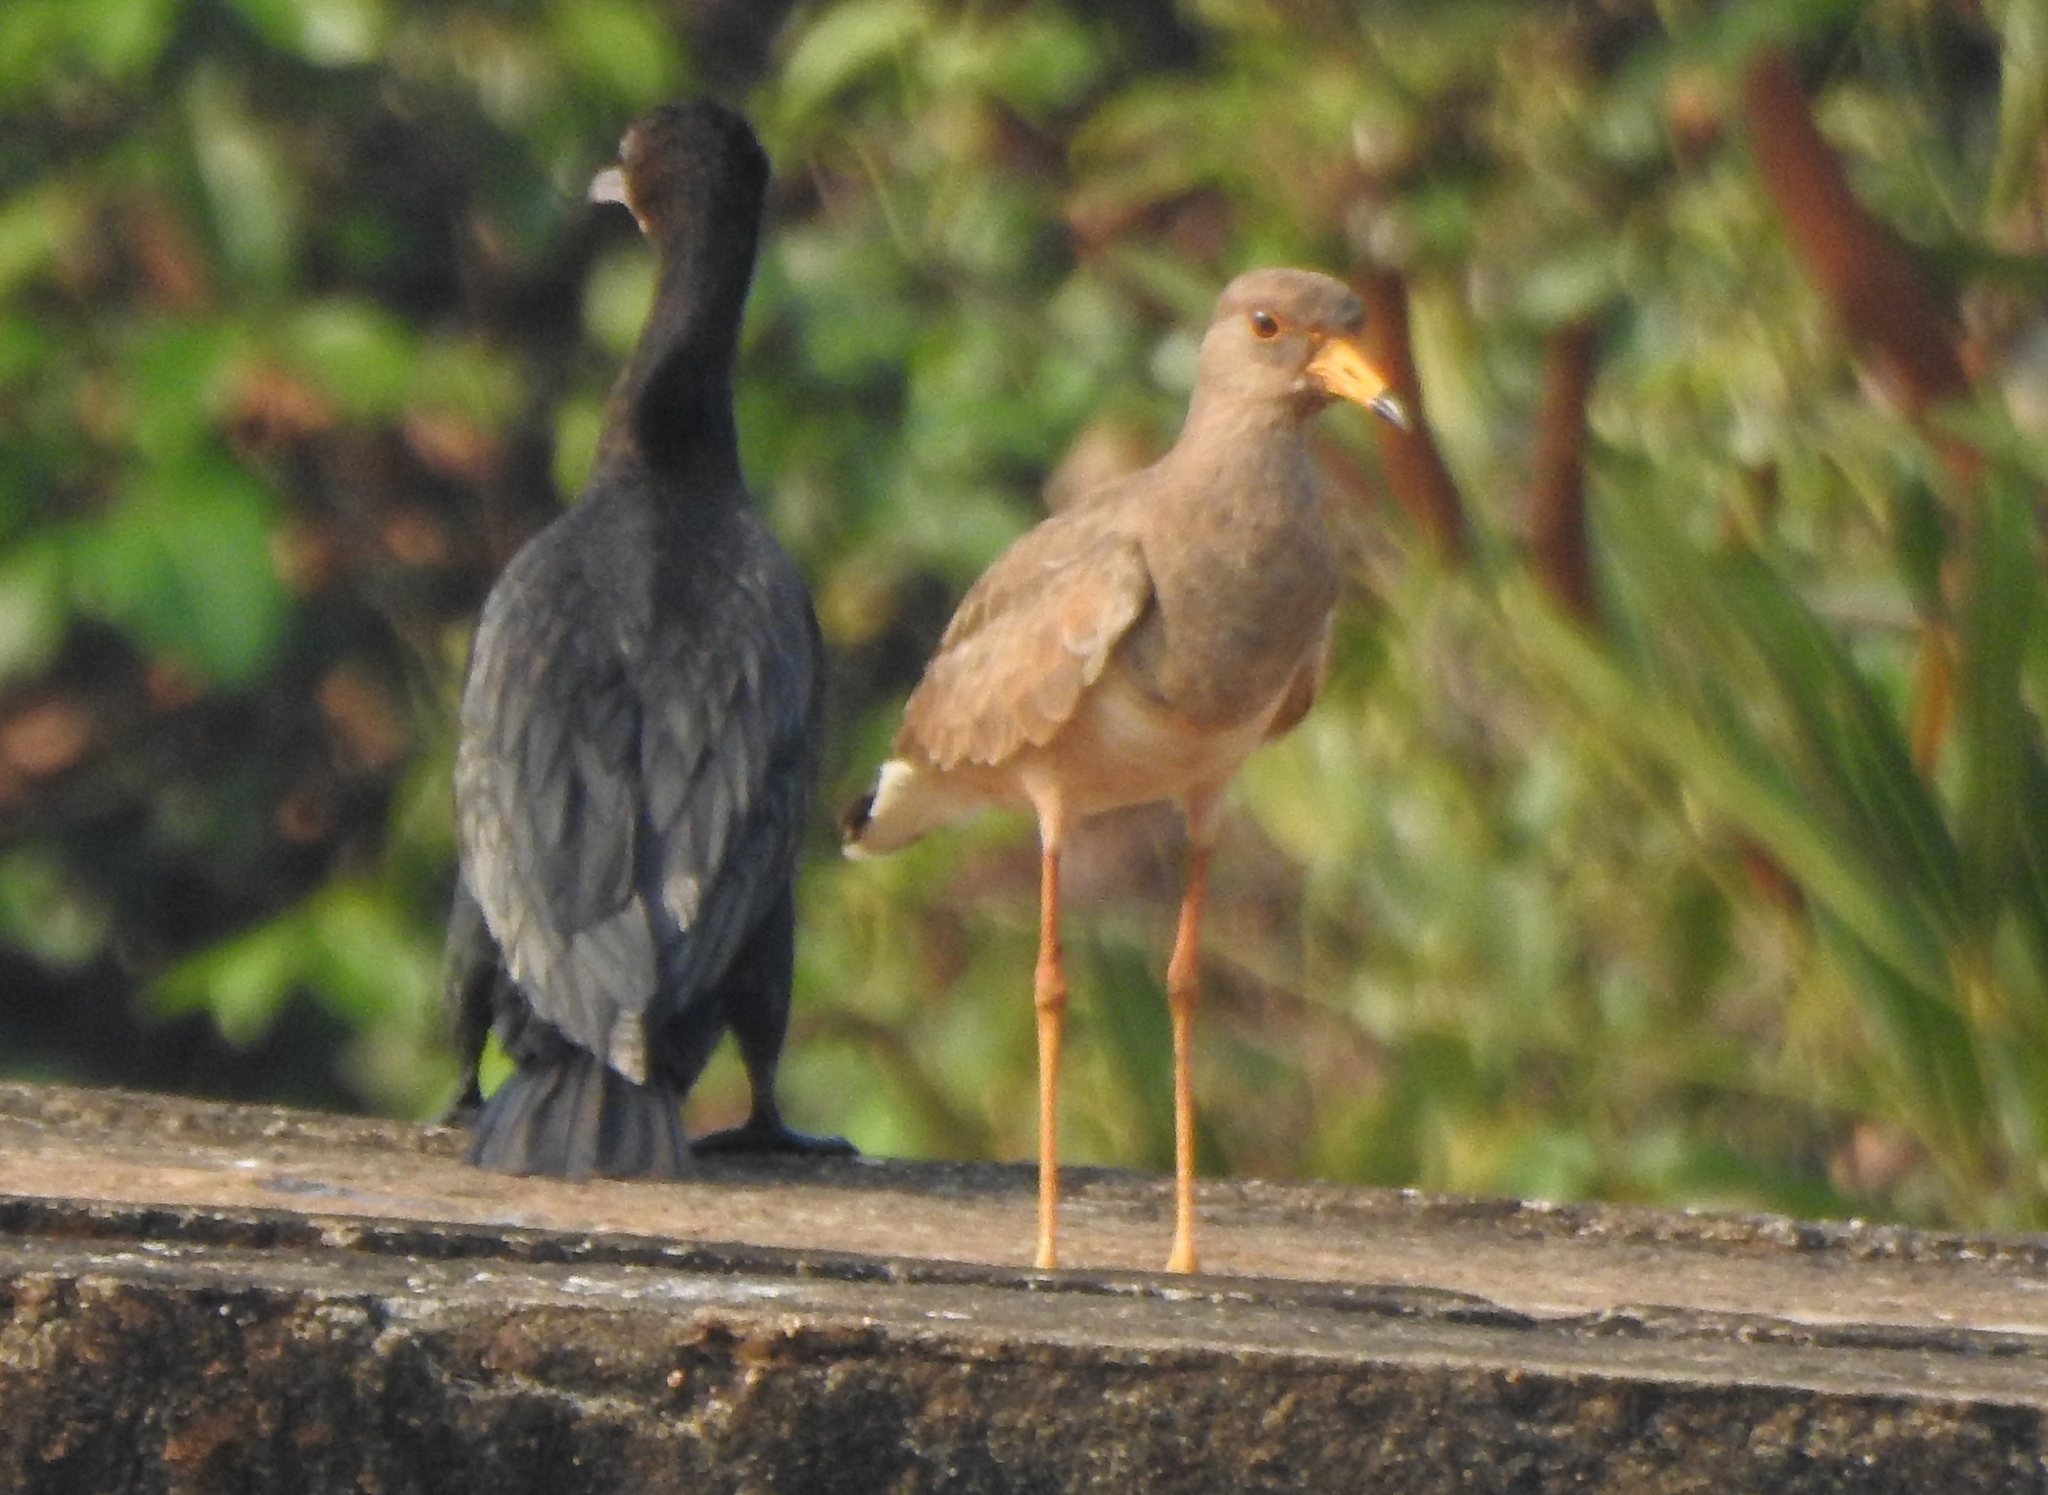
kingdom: Animalia
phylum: Chordata
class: Aves
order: Charadriiformes
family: Charadriidae
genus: Vanellus
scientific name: Vanellus cinereus
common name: Grey-headed lapwing
